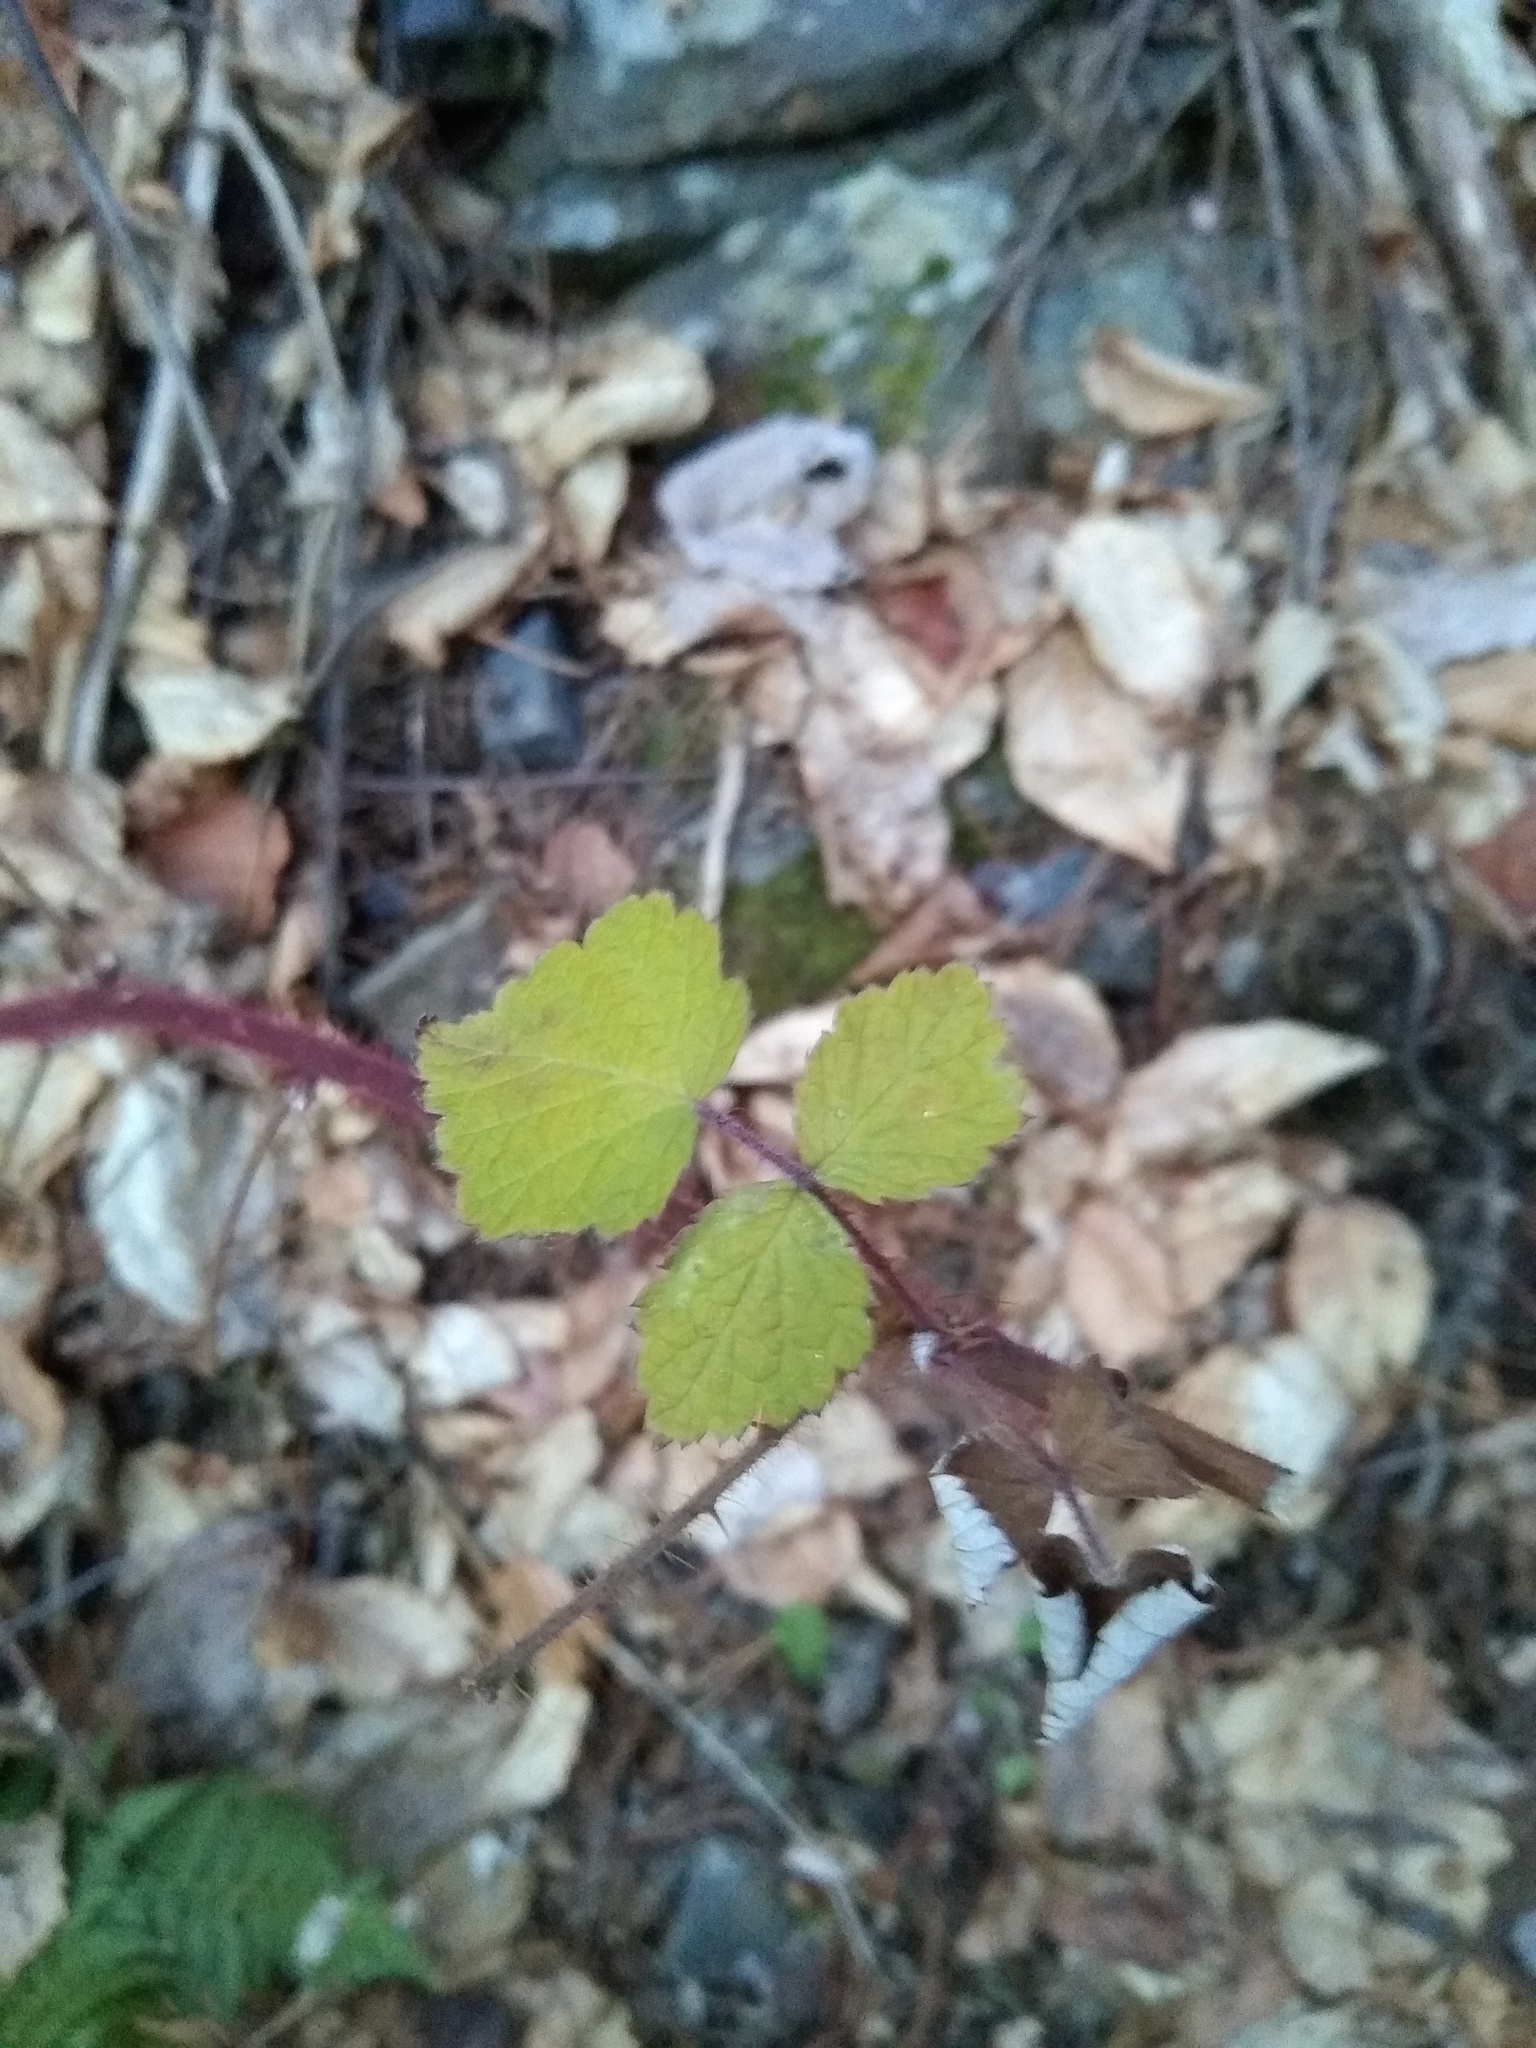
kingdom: Plantae
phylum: Tracheophyta
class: Magnoliopsida
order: Rosales
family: Rosaceae
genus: Rubus
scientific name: Rubus phoenicolasius
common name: Japanese wineberry
